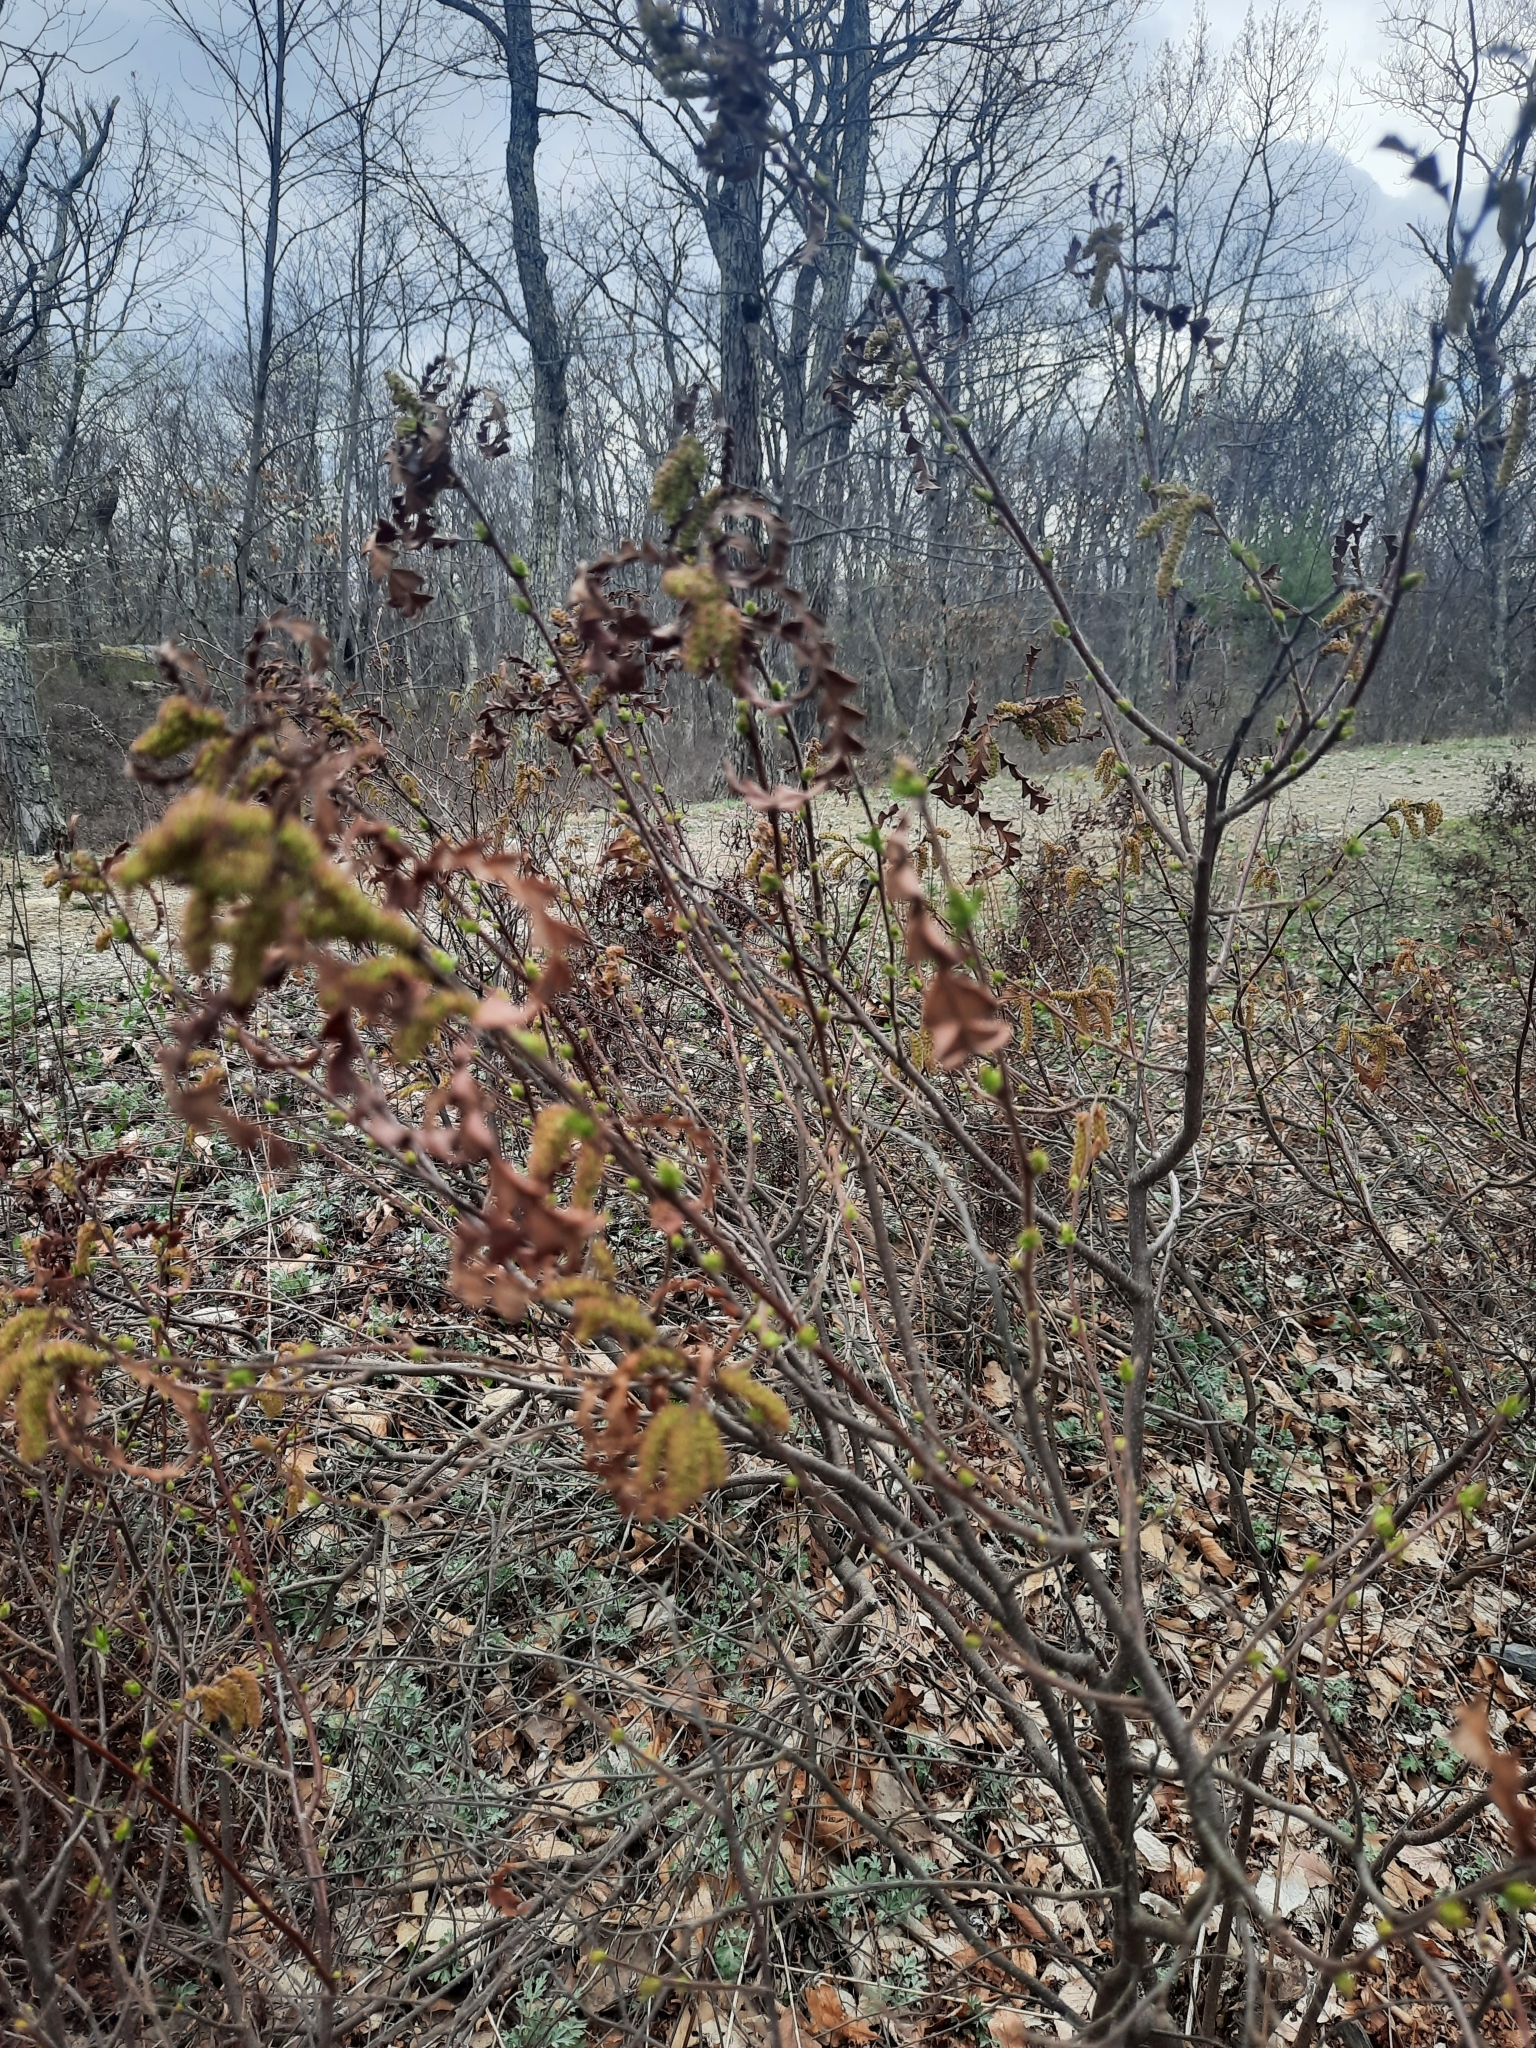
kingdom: Plantae
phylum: Tracheophyta
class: Magnoliopsida
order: Fagales
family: Myricaceae
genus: Comptonia
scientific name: Comptonia peregrina
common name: Sweet-fern
